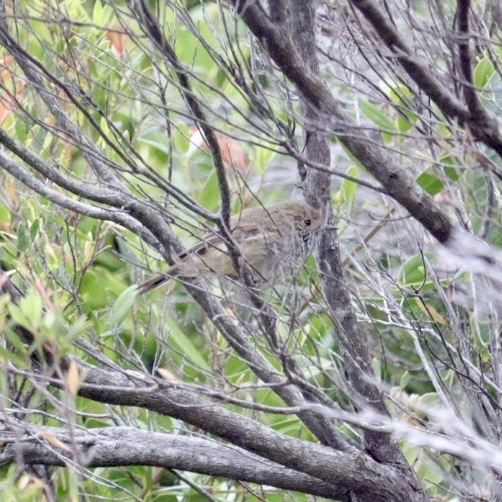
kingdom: Animalia
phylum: Chordata
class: Aves
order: Passeriformes
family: Acanthizidae
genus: Acanthiza
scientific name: Acanthiza pusilla
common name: Brown thornbill
